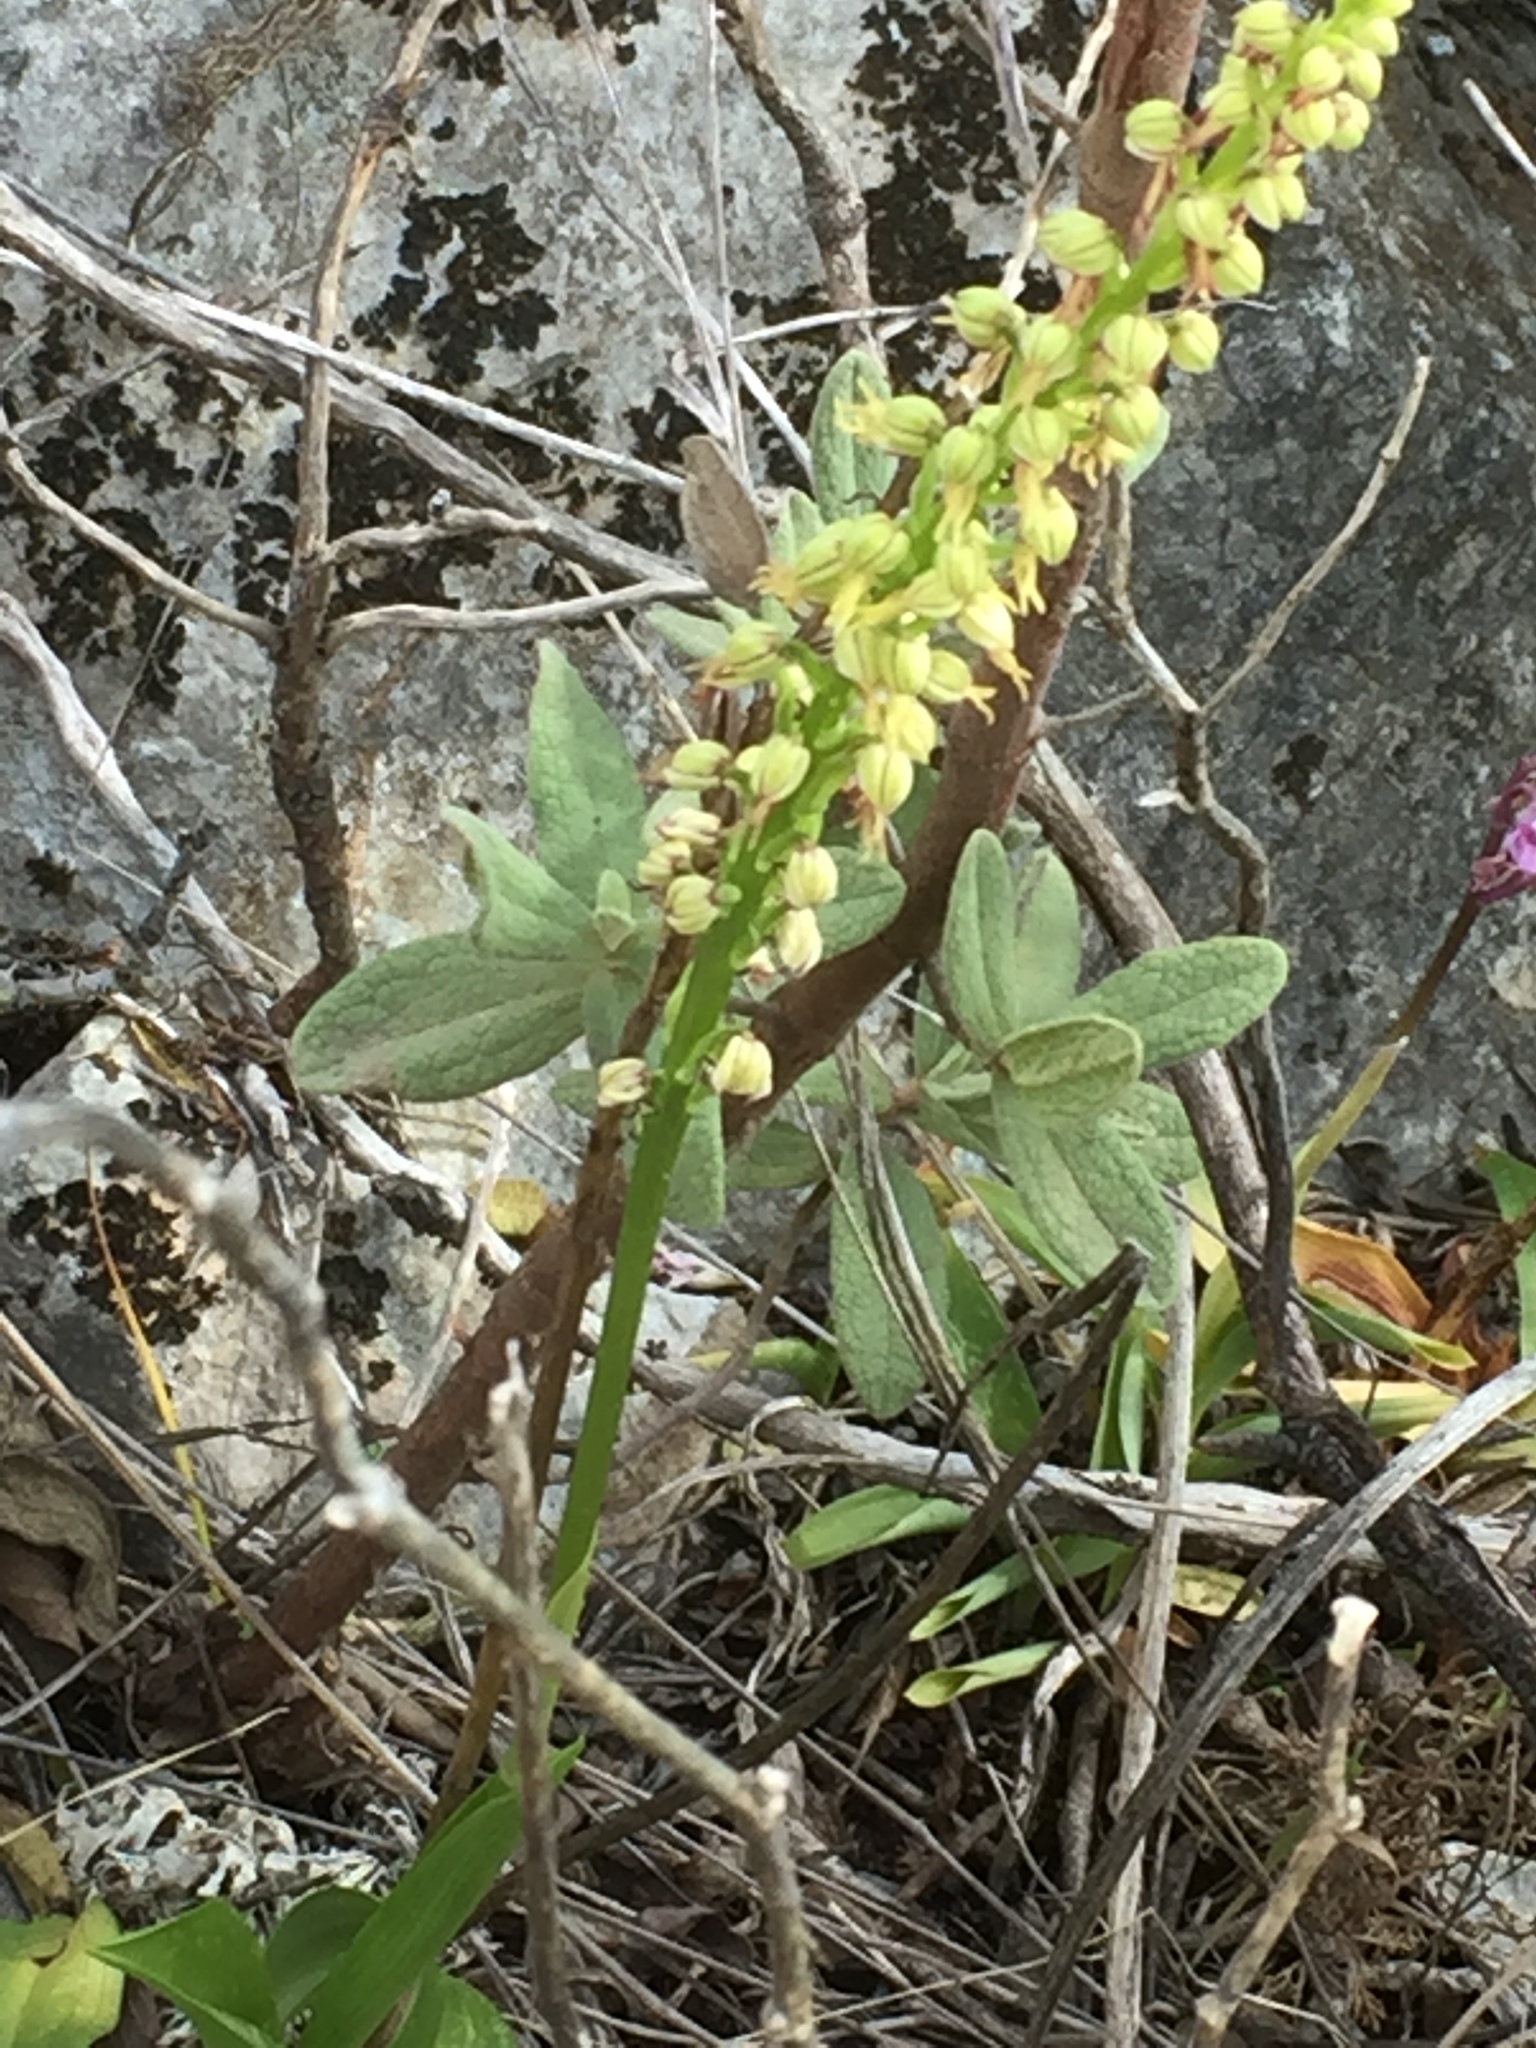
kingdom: Plantae
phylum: Tracheophyta
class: Liliopsida
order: Asparagales
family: Orchidaceae
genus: Orchis
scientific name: Orchis anthropophora
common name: Man orchid
